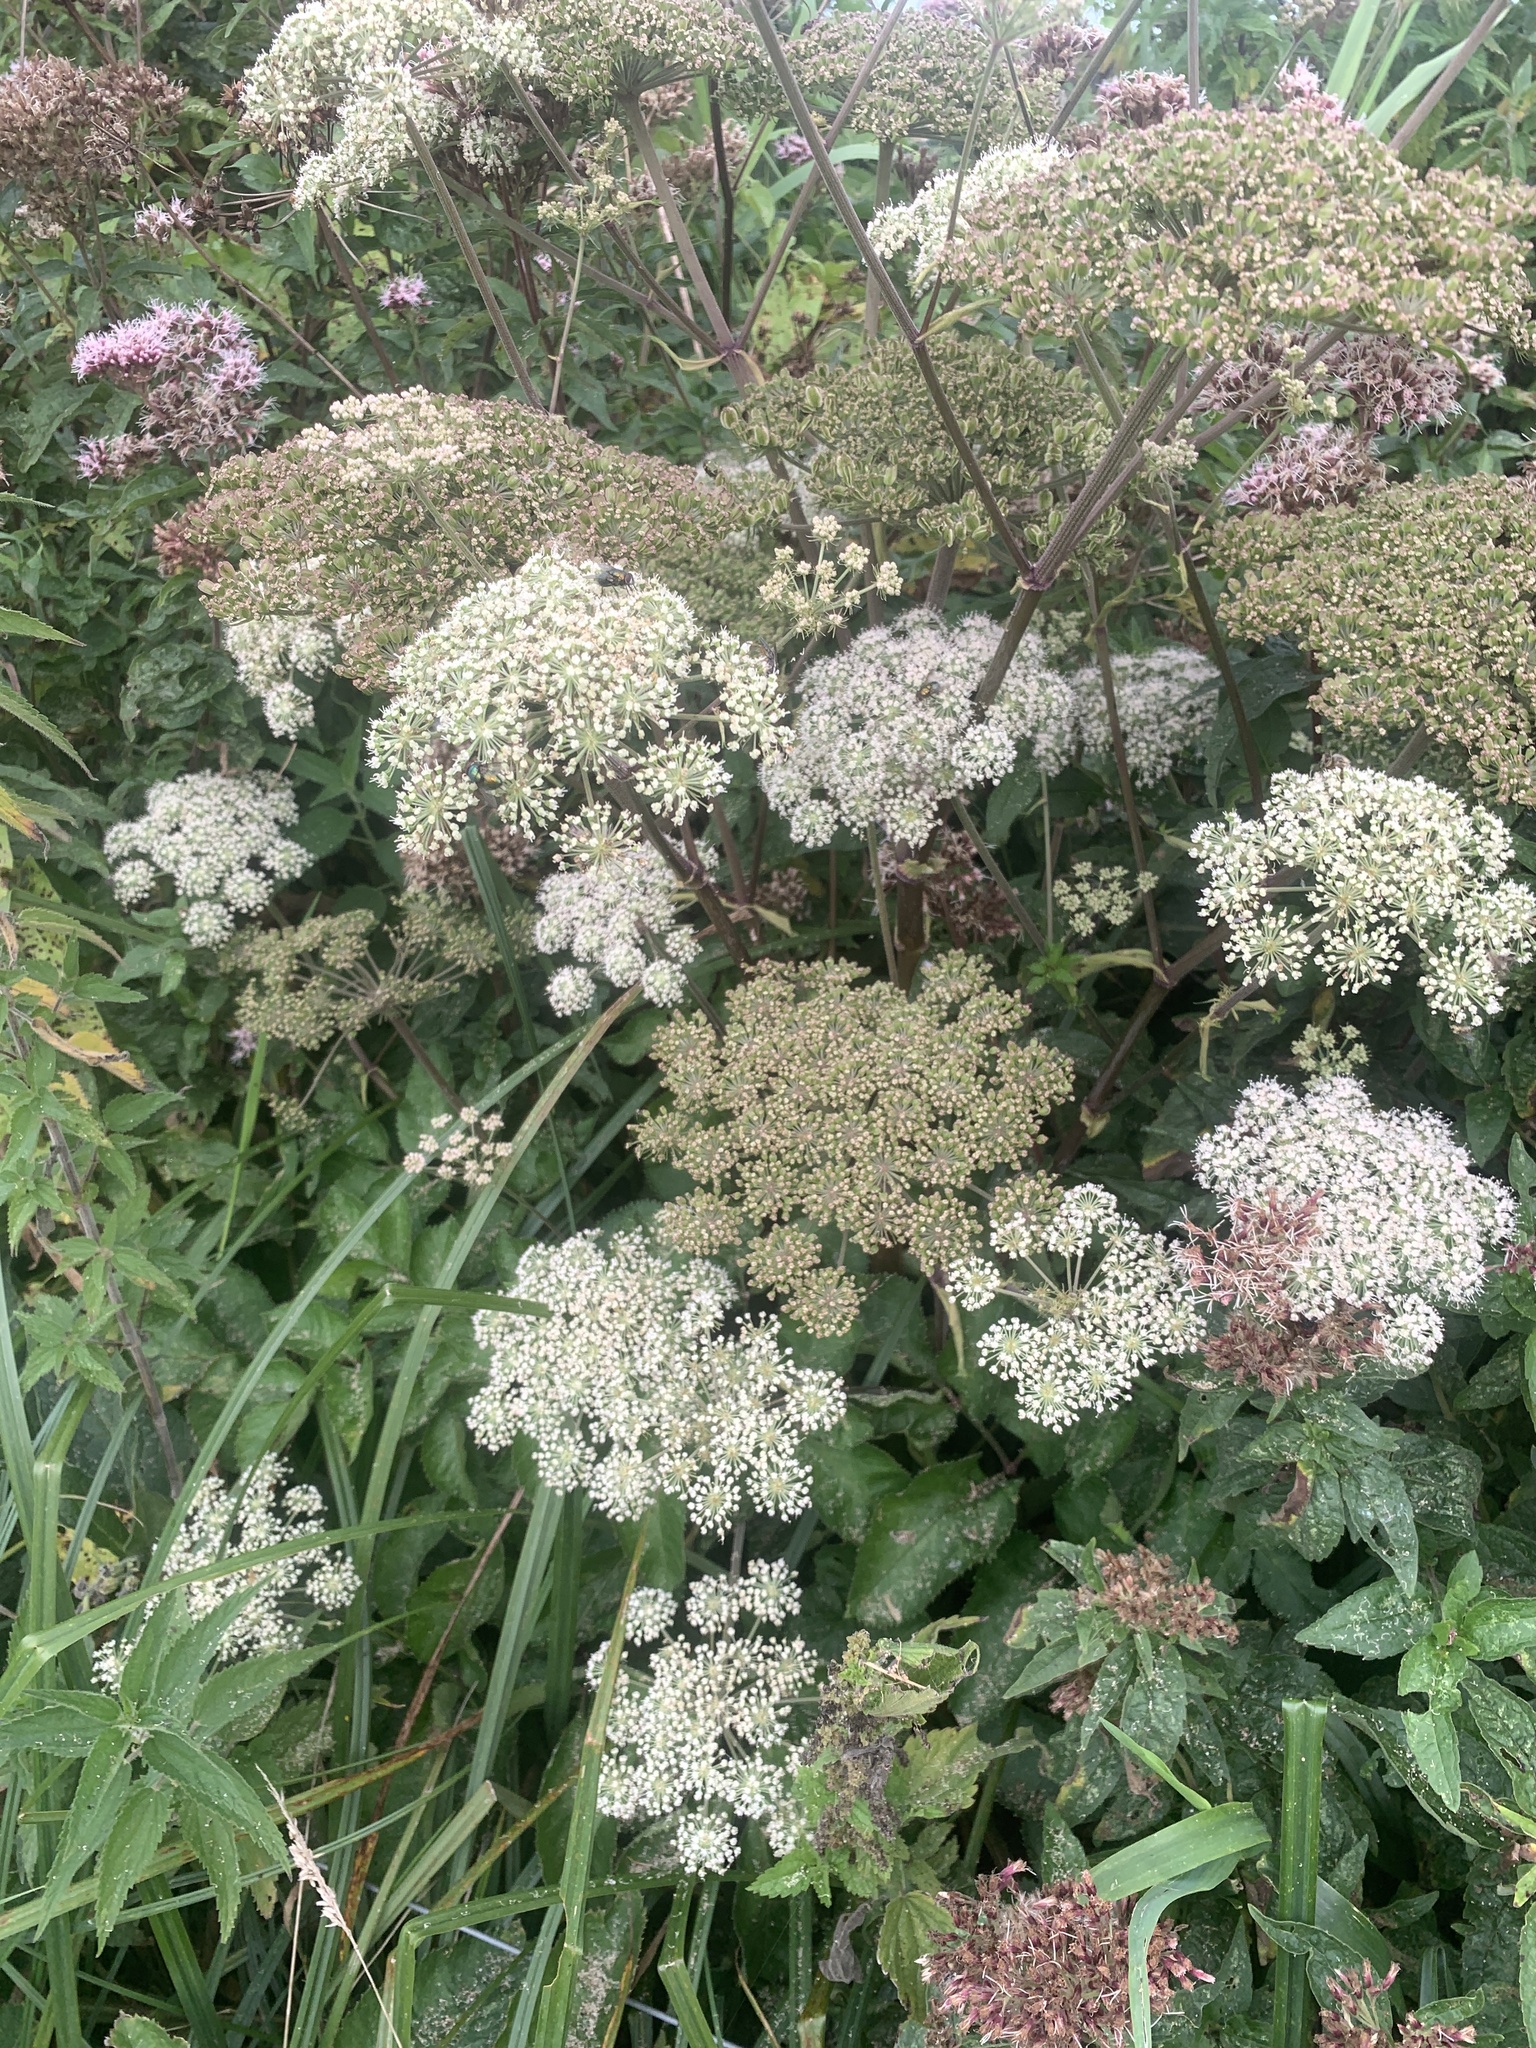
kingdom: Plantae
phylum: Tracheophyta
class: Magnoliopsida
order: Apiales
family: Apiaceae
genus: Angelica
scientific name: Angelica sylvestris
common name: Wild angelica
